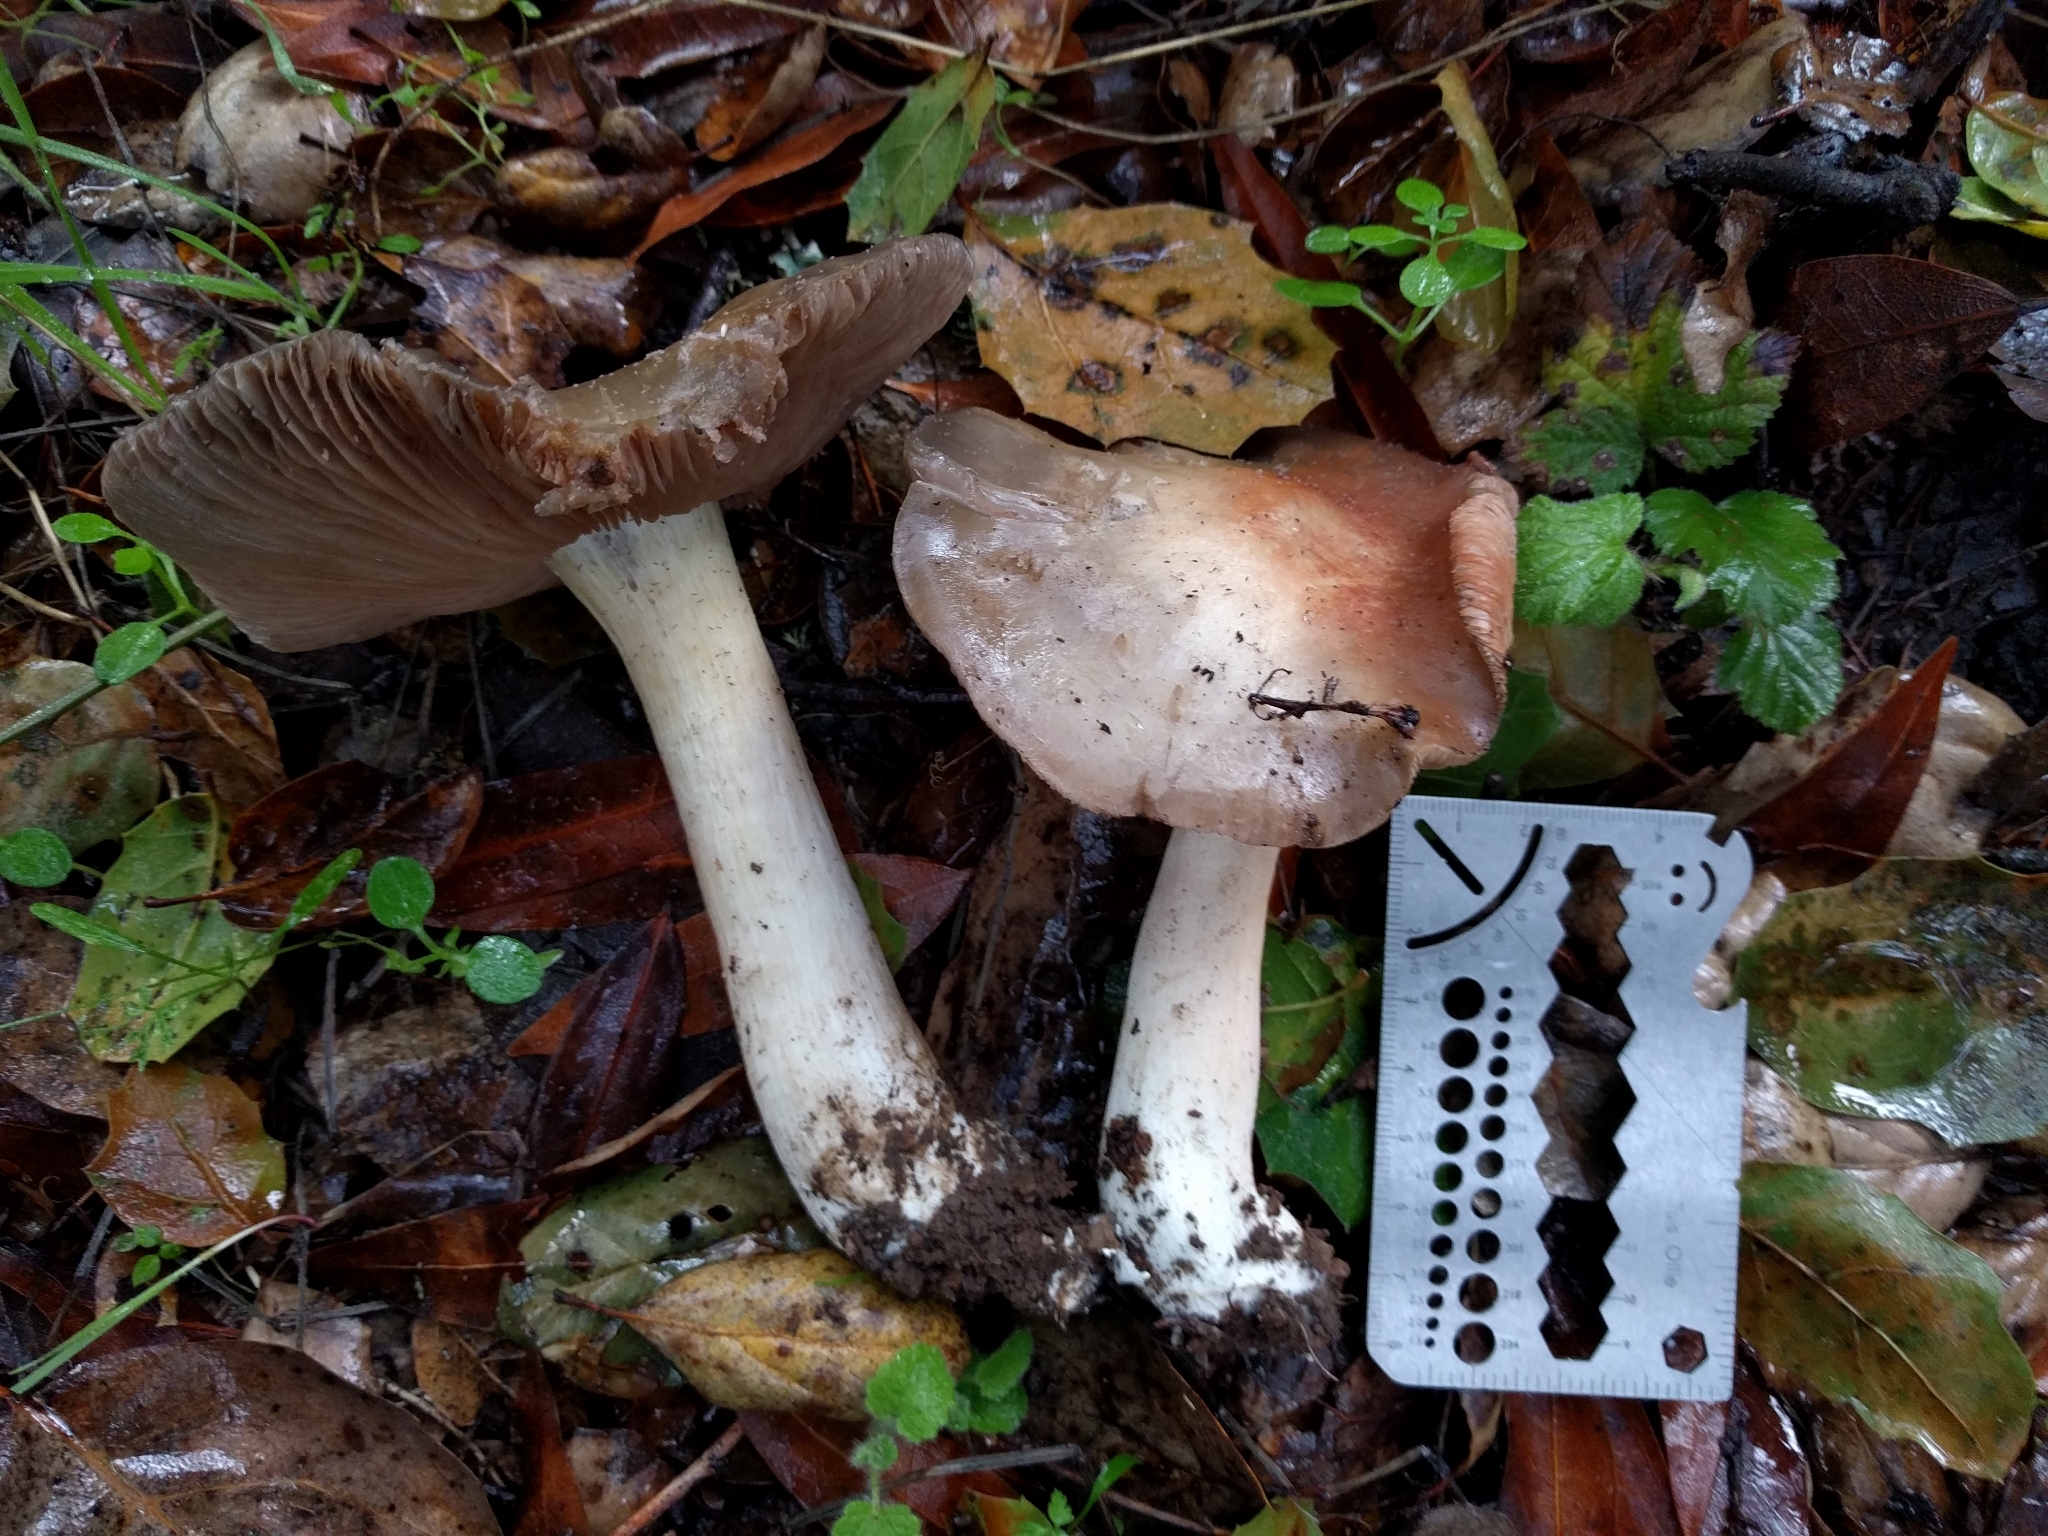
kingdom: Fungi
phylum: Basidiomycota
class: Agaricomycetes
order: Agaricales
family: Entolomataceae
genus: Entoloma
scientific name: Entoloma ferruginans
